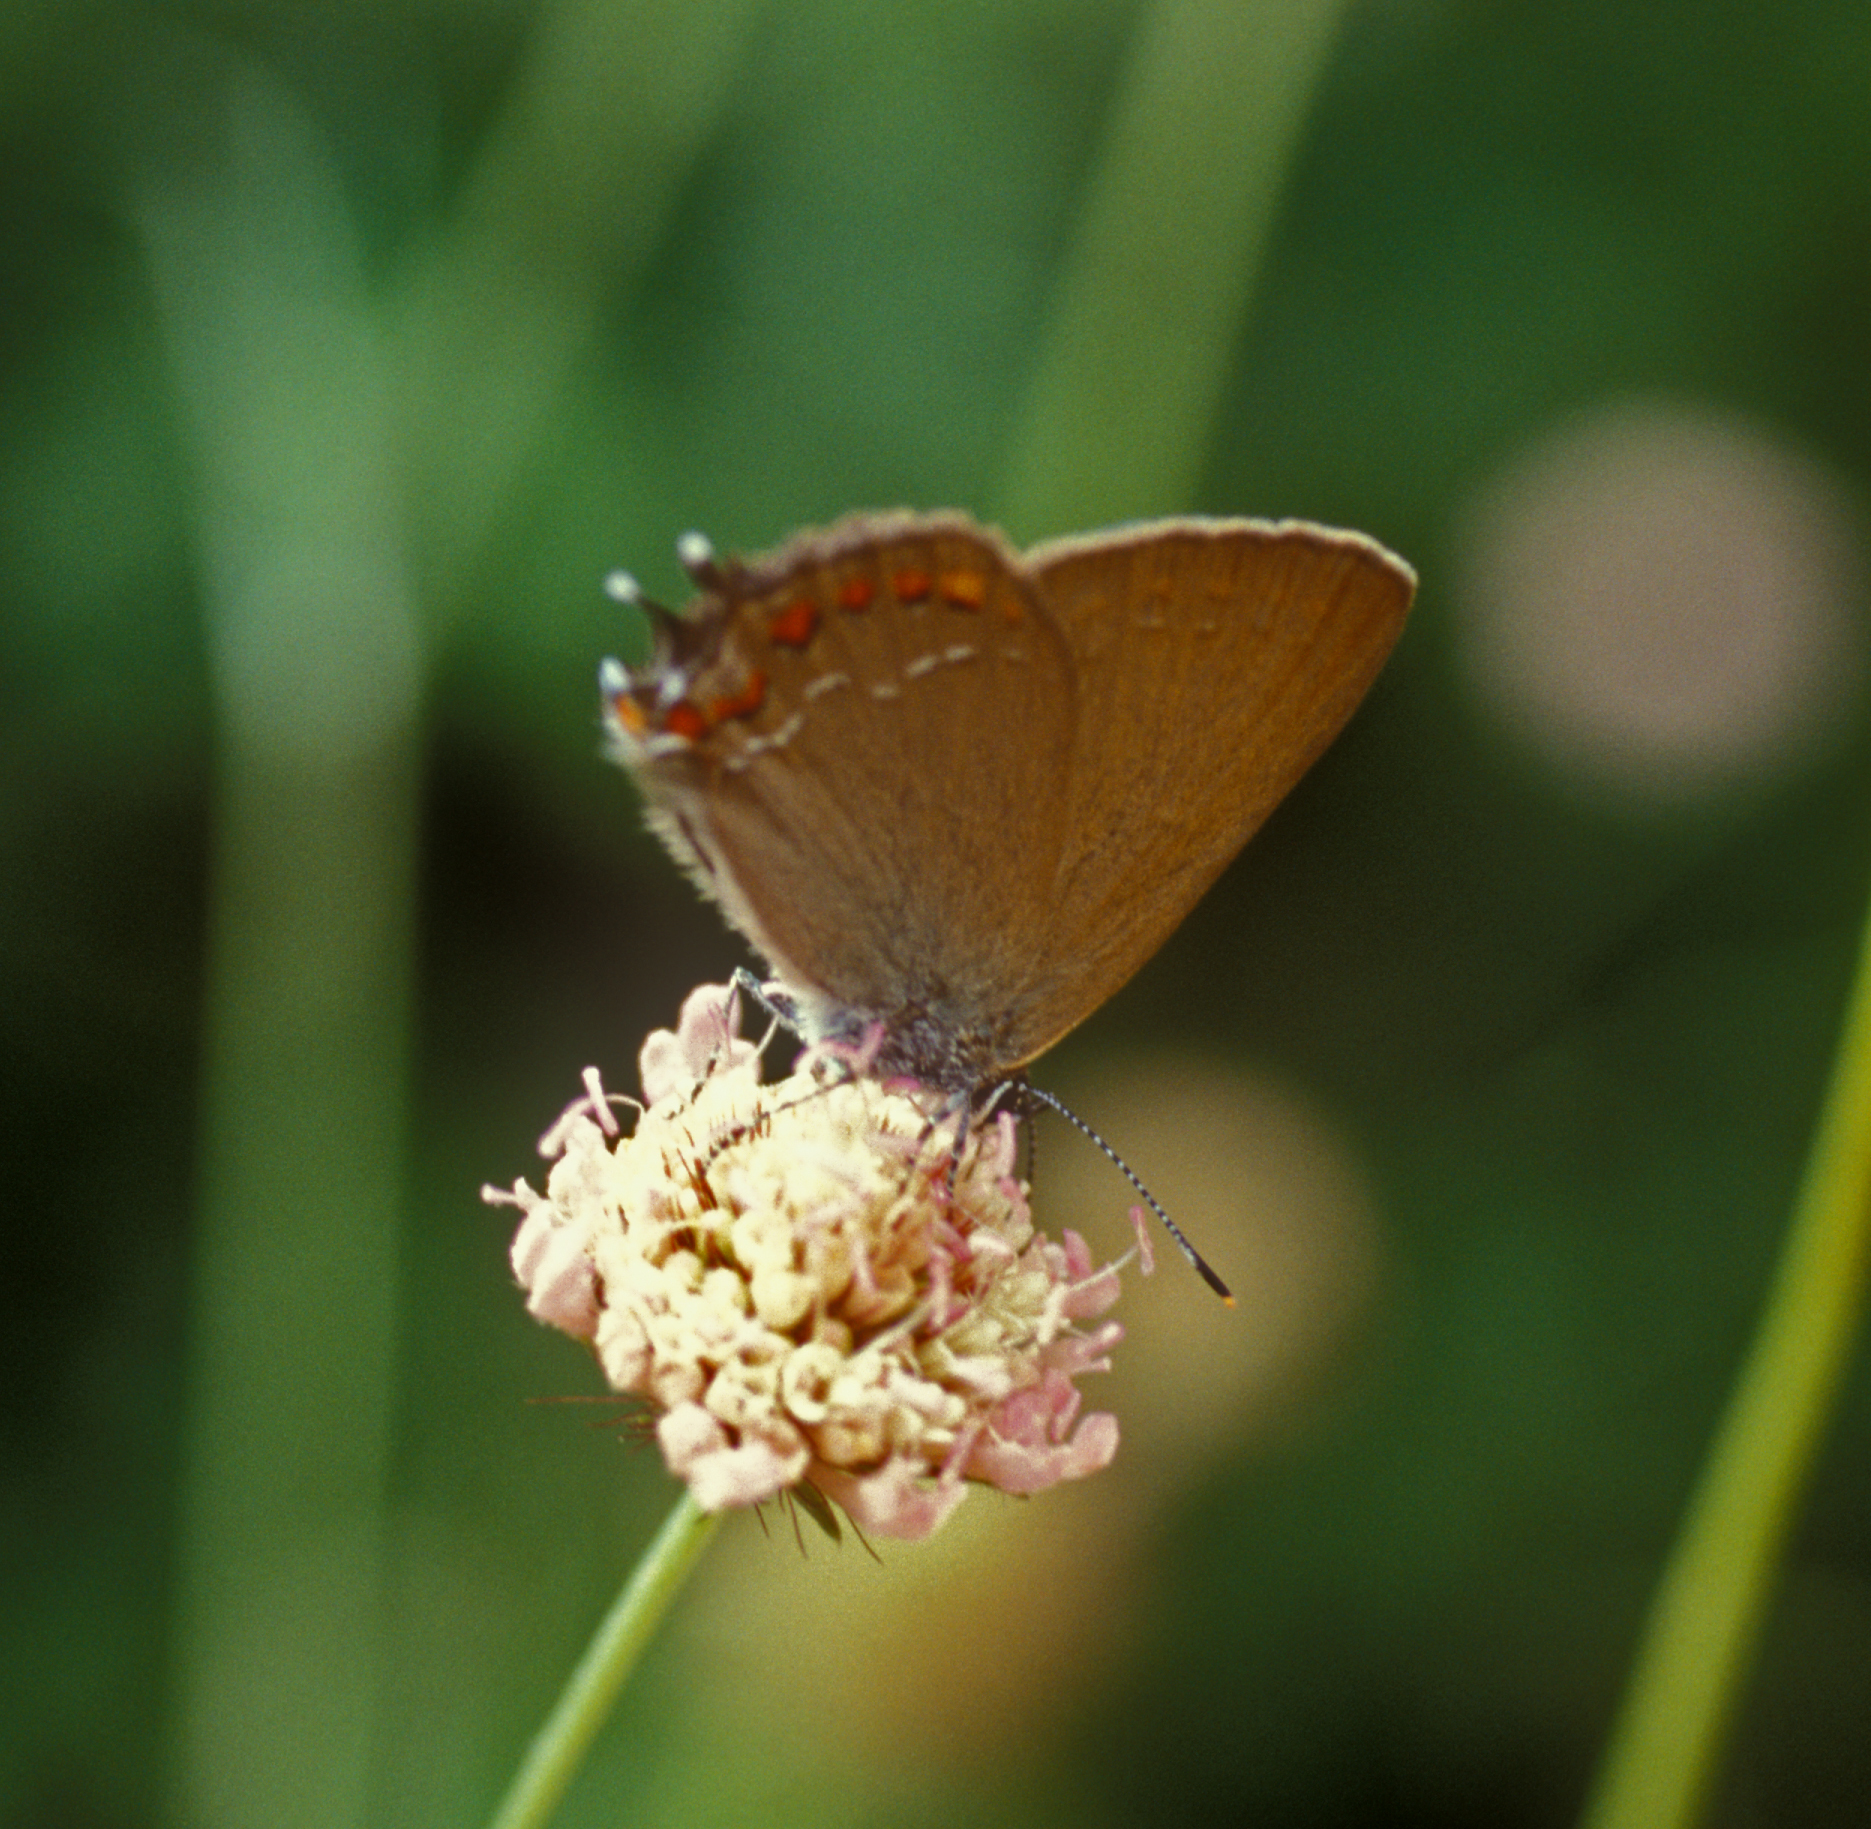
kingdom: Animalia
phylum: Arthropoda
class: Insecta
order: Lepidoptera
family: Lycaenidae
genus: Fixsenia
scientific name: Fixsenia esculi
